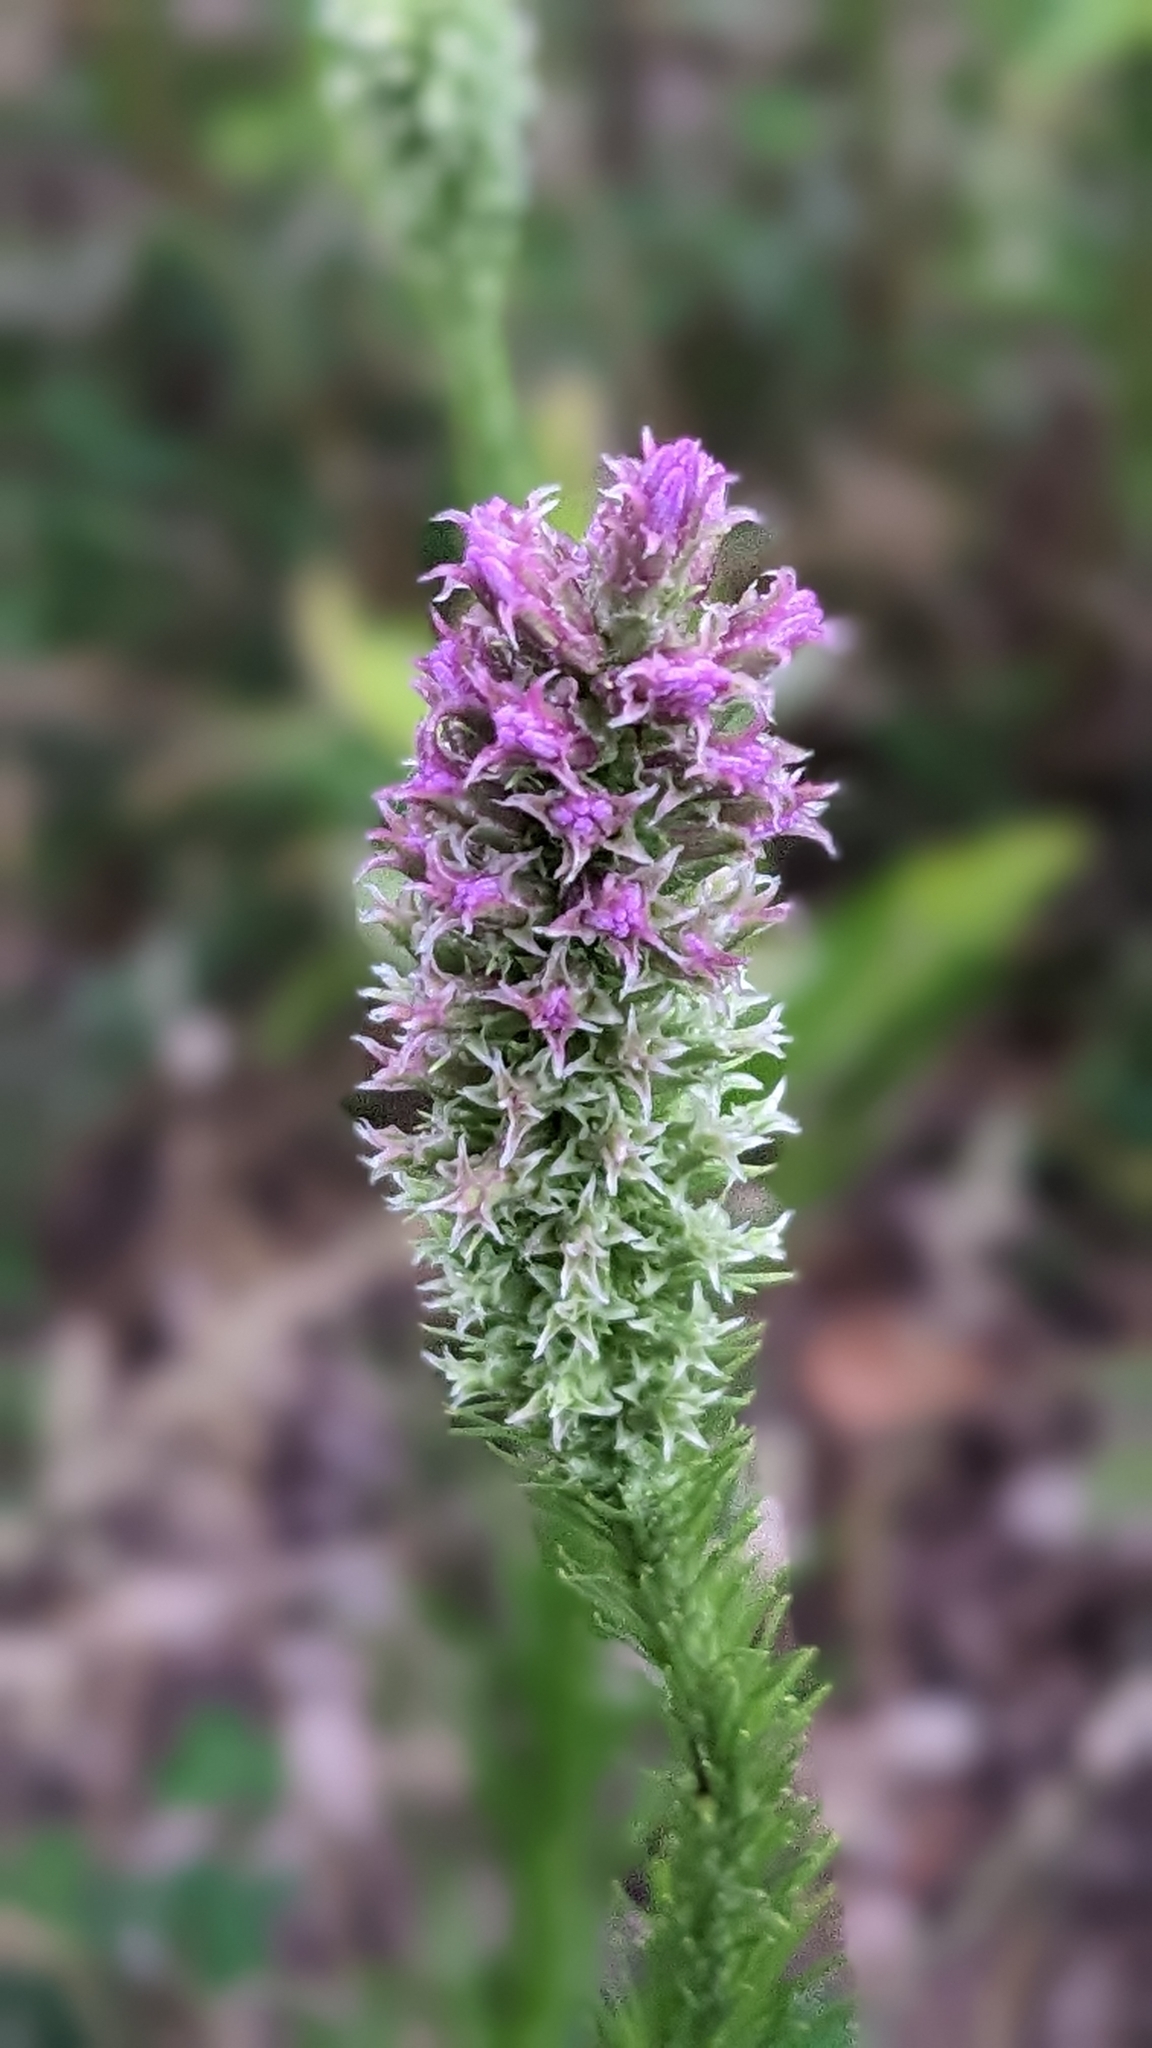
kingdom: Plantae
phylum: Tracheophyta
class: Magnoliopsida
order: Asterales
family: Asteraceae
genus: Liatris
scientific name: Liatris pycnostachya
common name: Cattail gayfeather
